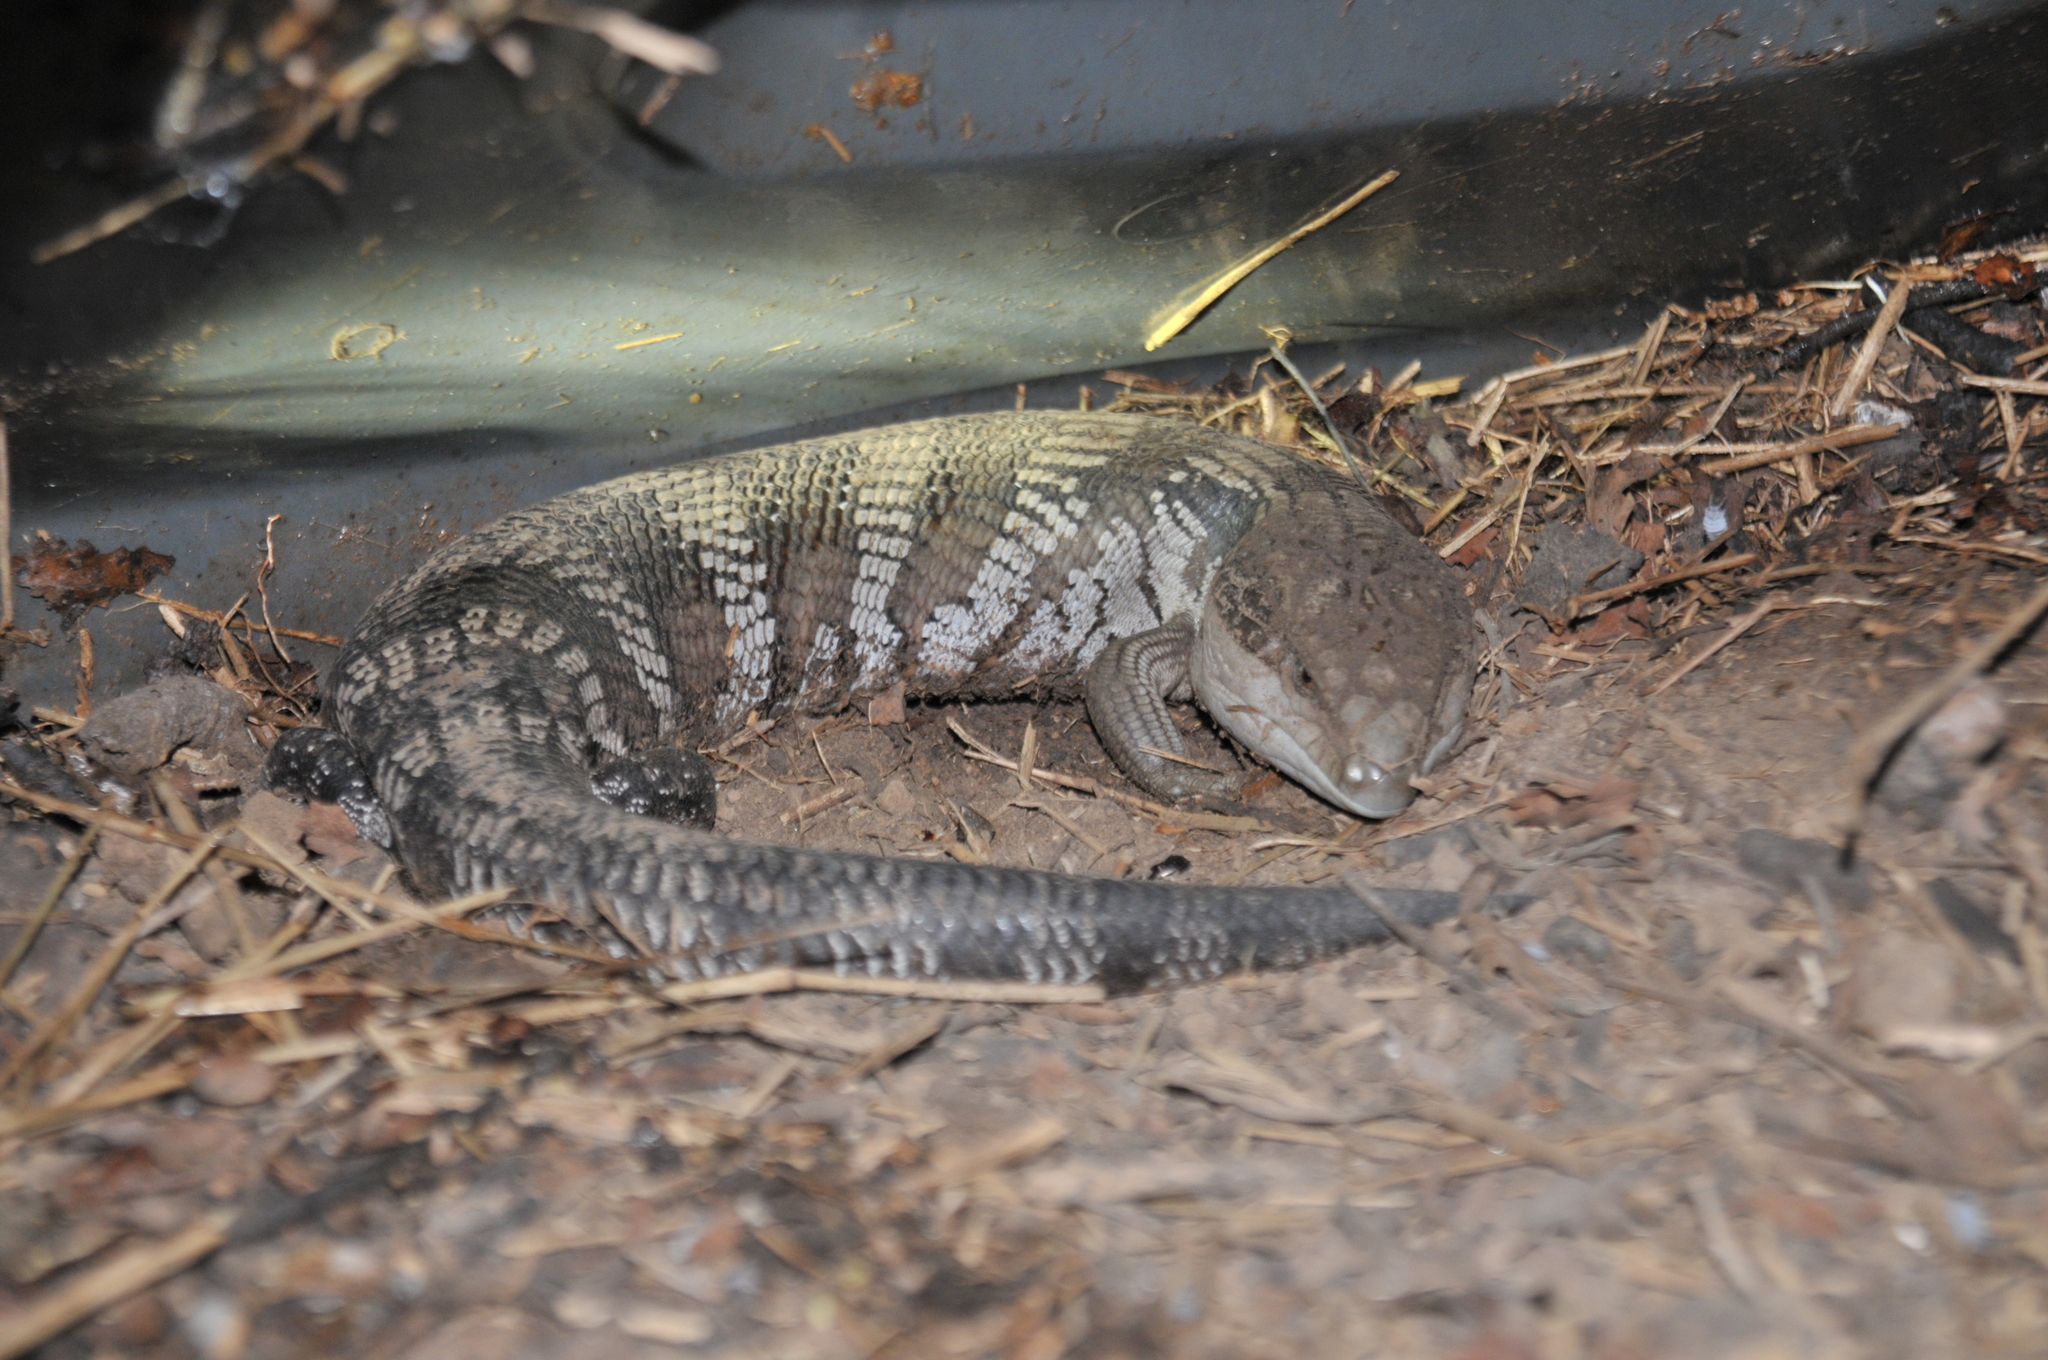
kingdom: Animalia
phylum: Chordata
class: Squamata
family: Scincidae
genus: Tiliqua
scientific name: Tiliqua scincoides
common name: Common bluetongue
